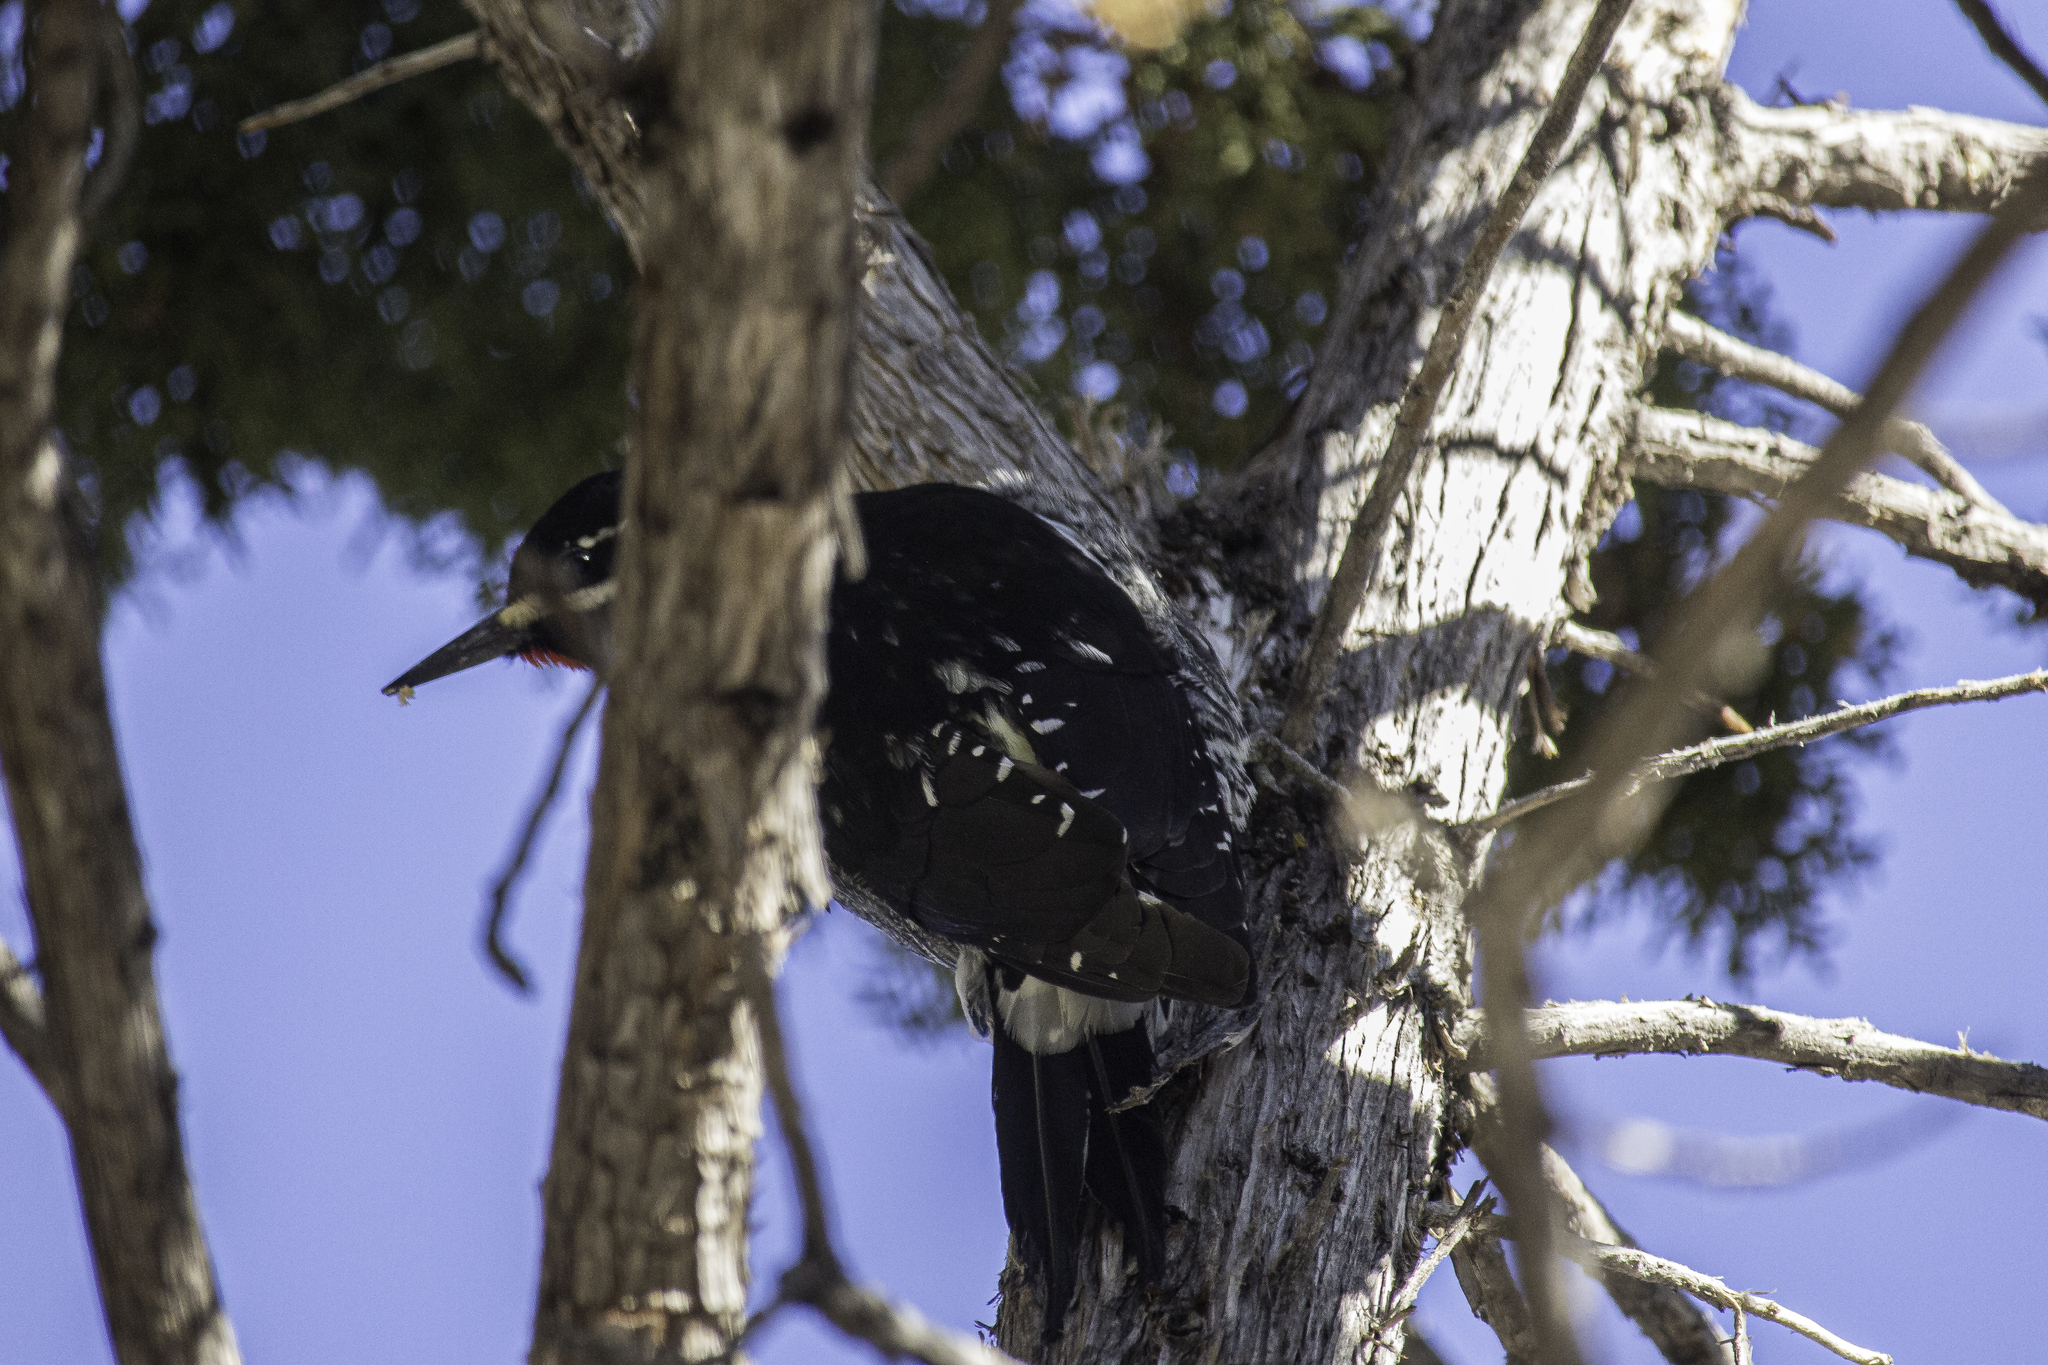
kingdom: Animalia
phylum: Chordata
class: Aves
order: Piciformes
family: Picidae
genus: Sphyrapicus
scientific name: Sphyrapicus thyroideus
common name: Williamson's sapsucker
